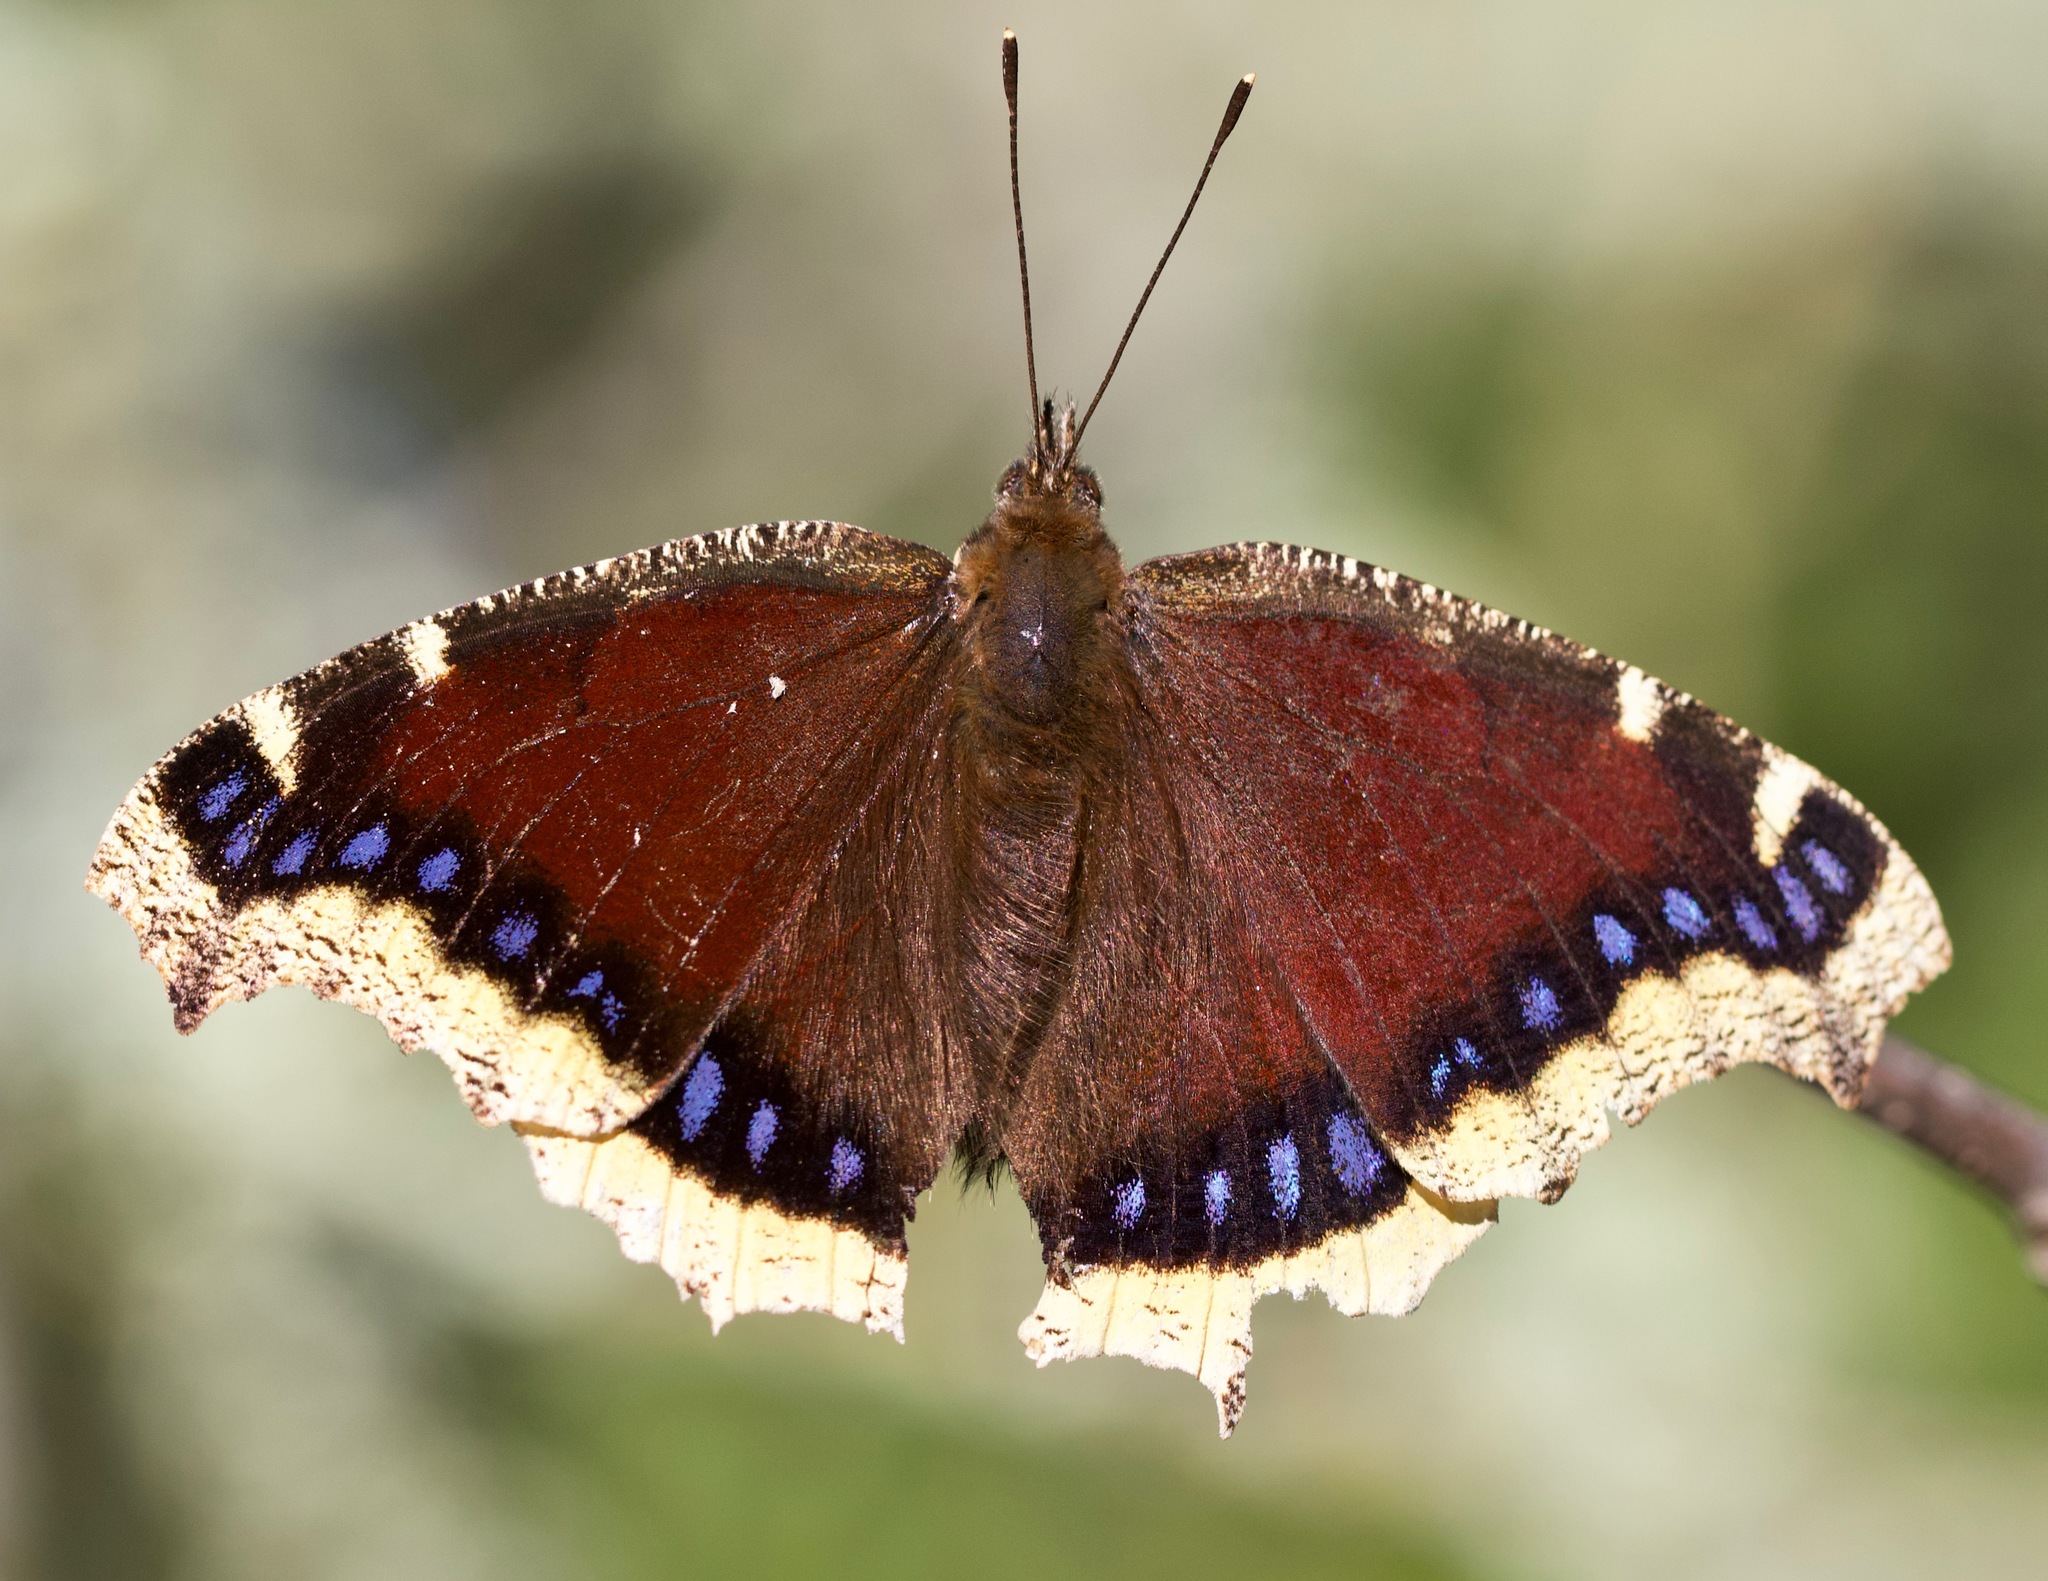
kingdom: Animalia
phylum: Arthropoda
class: Insecta
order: Lepidoptera
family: Nymphalidae
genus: Nymphalis
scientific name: Nymphalis antiopa
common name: Camberwell beauty
